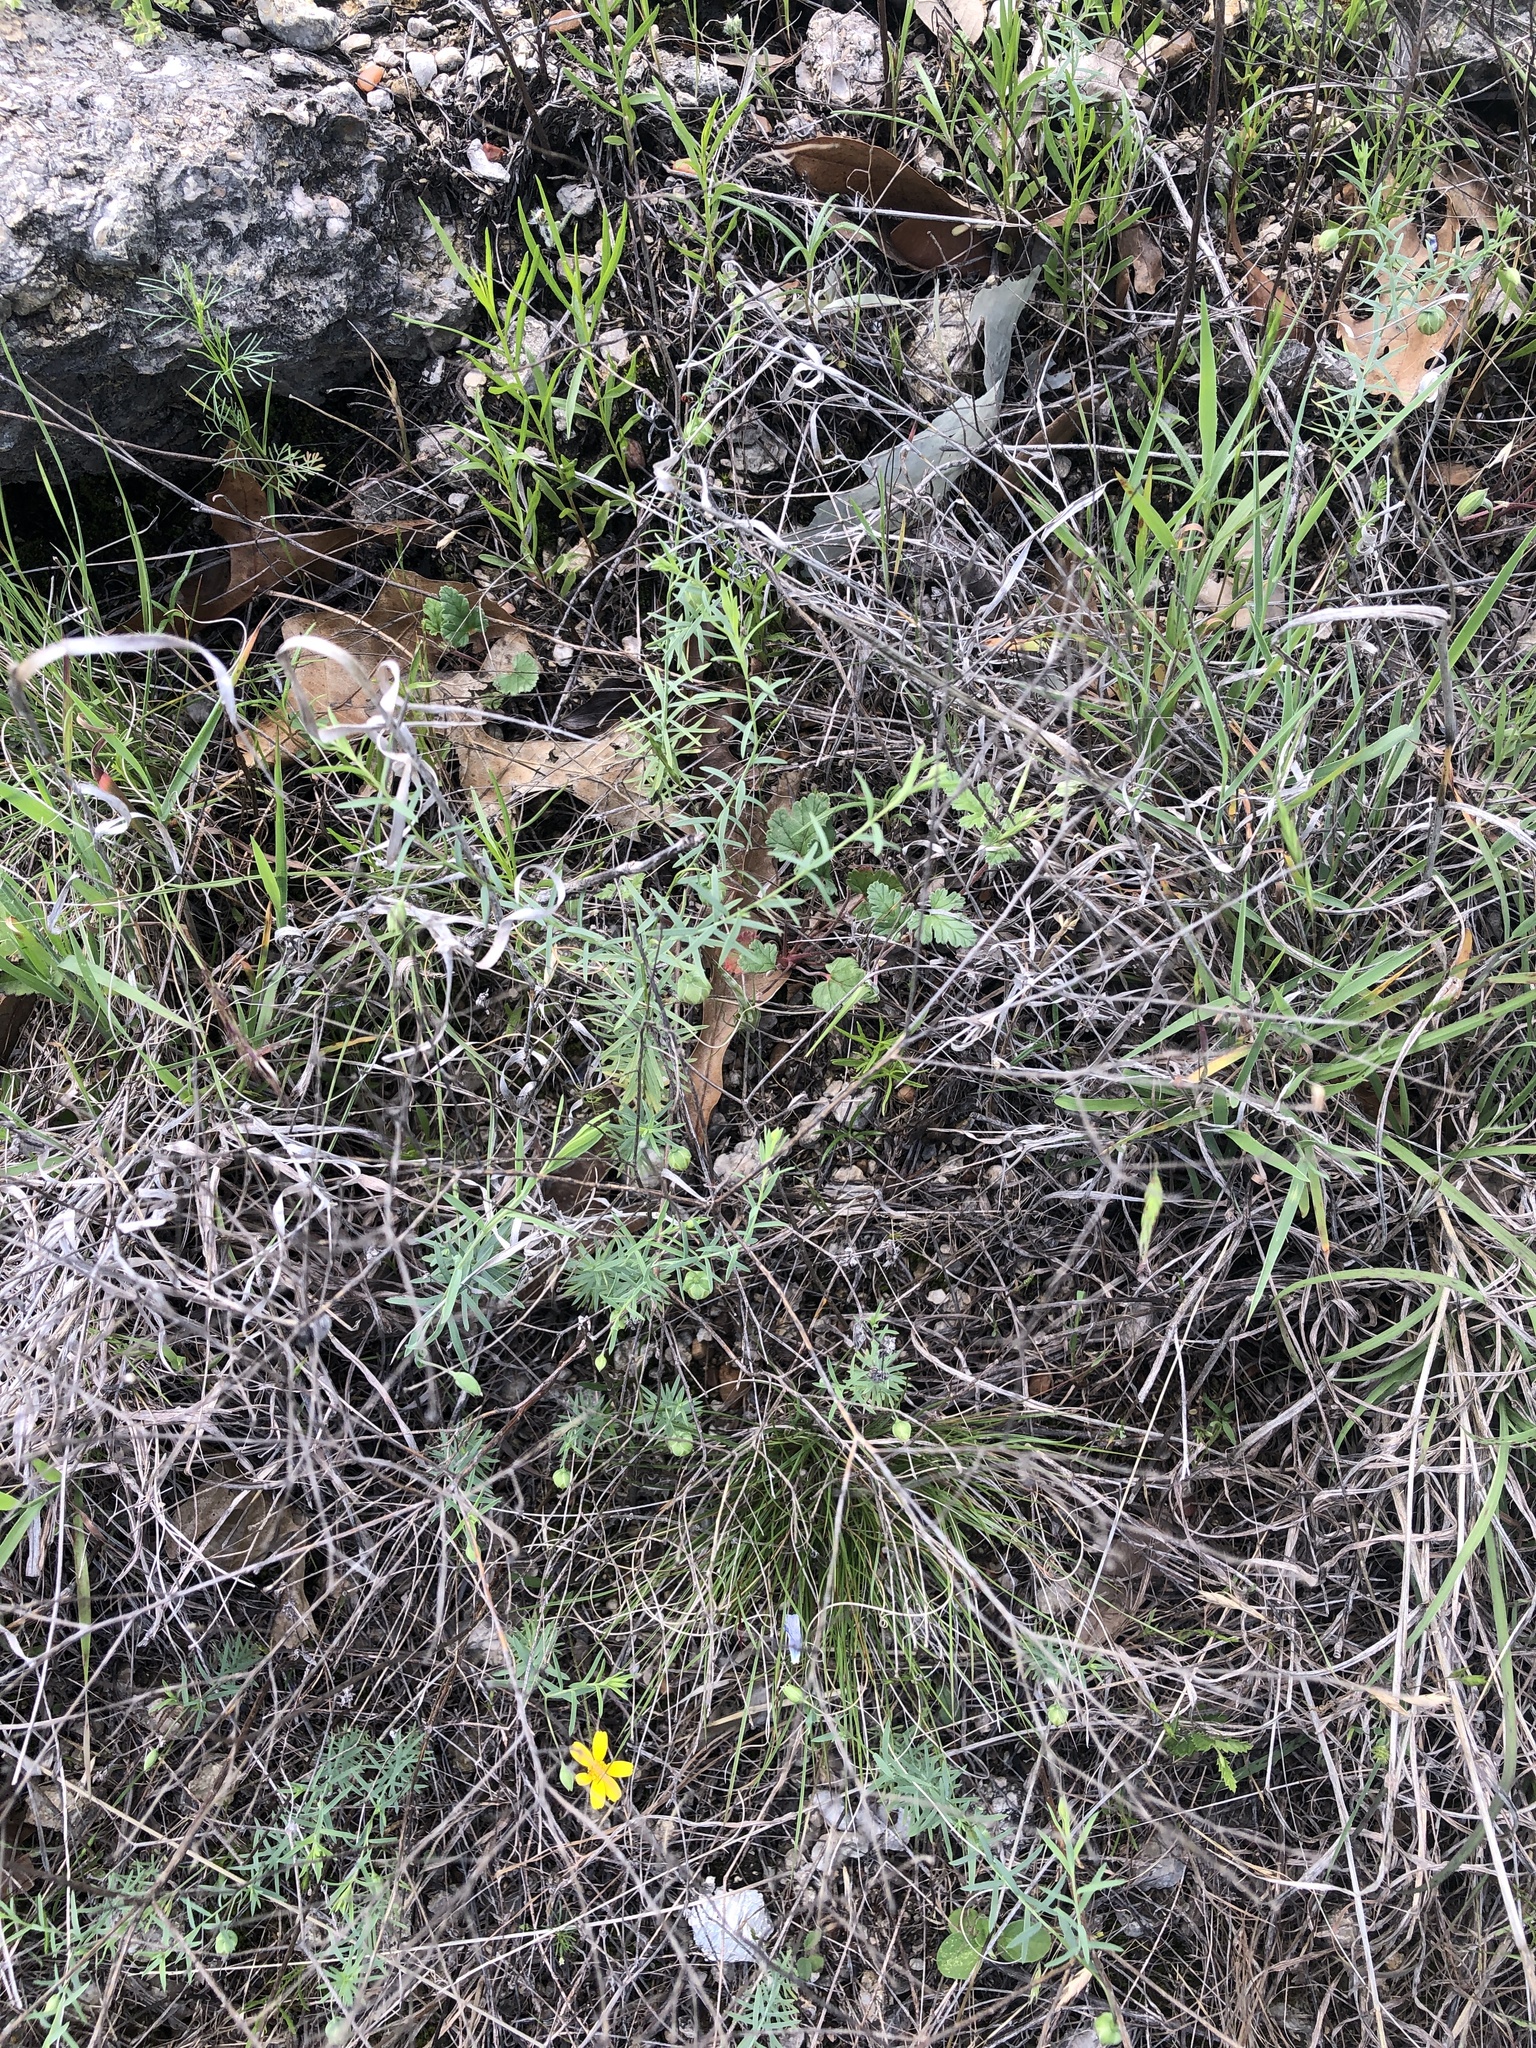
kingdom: Plantae
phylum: Tracheophyta
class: Magnoliopsida
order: Malpighiales
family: Linaceae
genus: Linum
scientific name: Linum pratense
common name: Norton's flax
